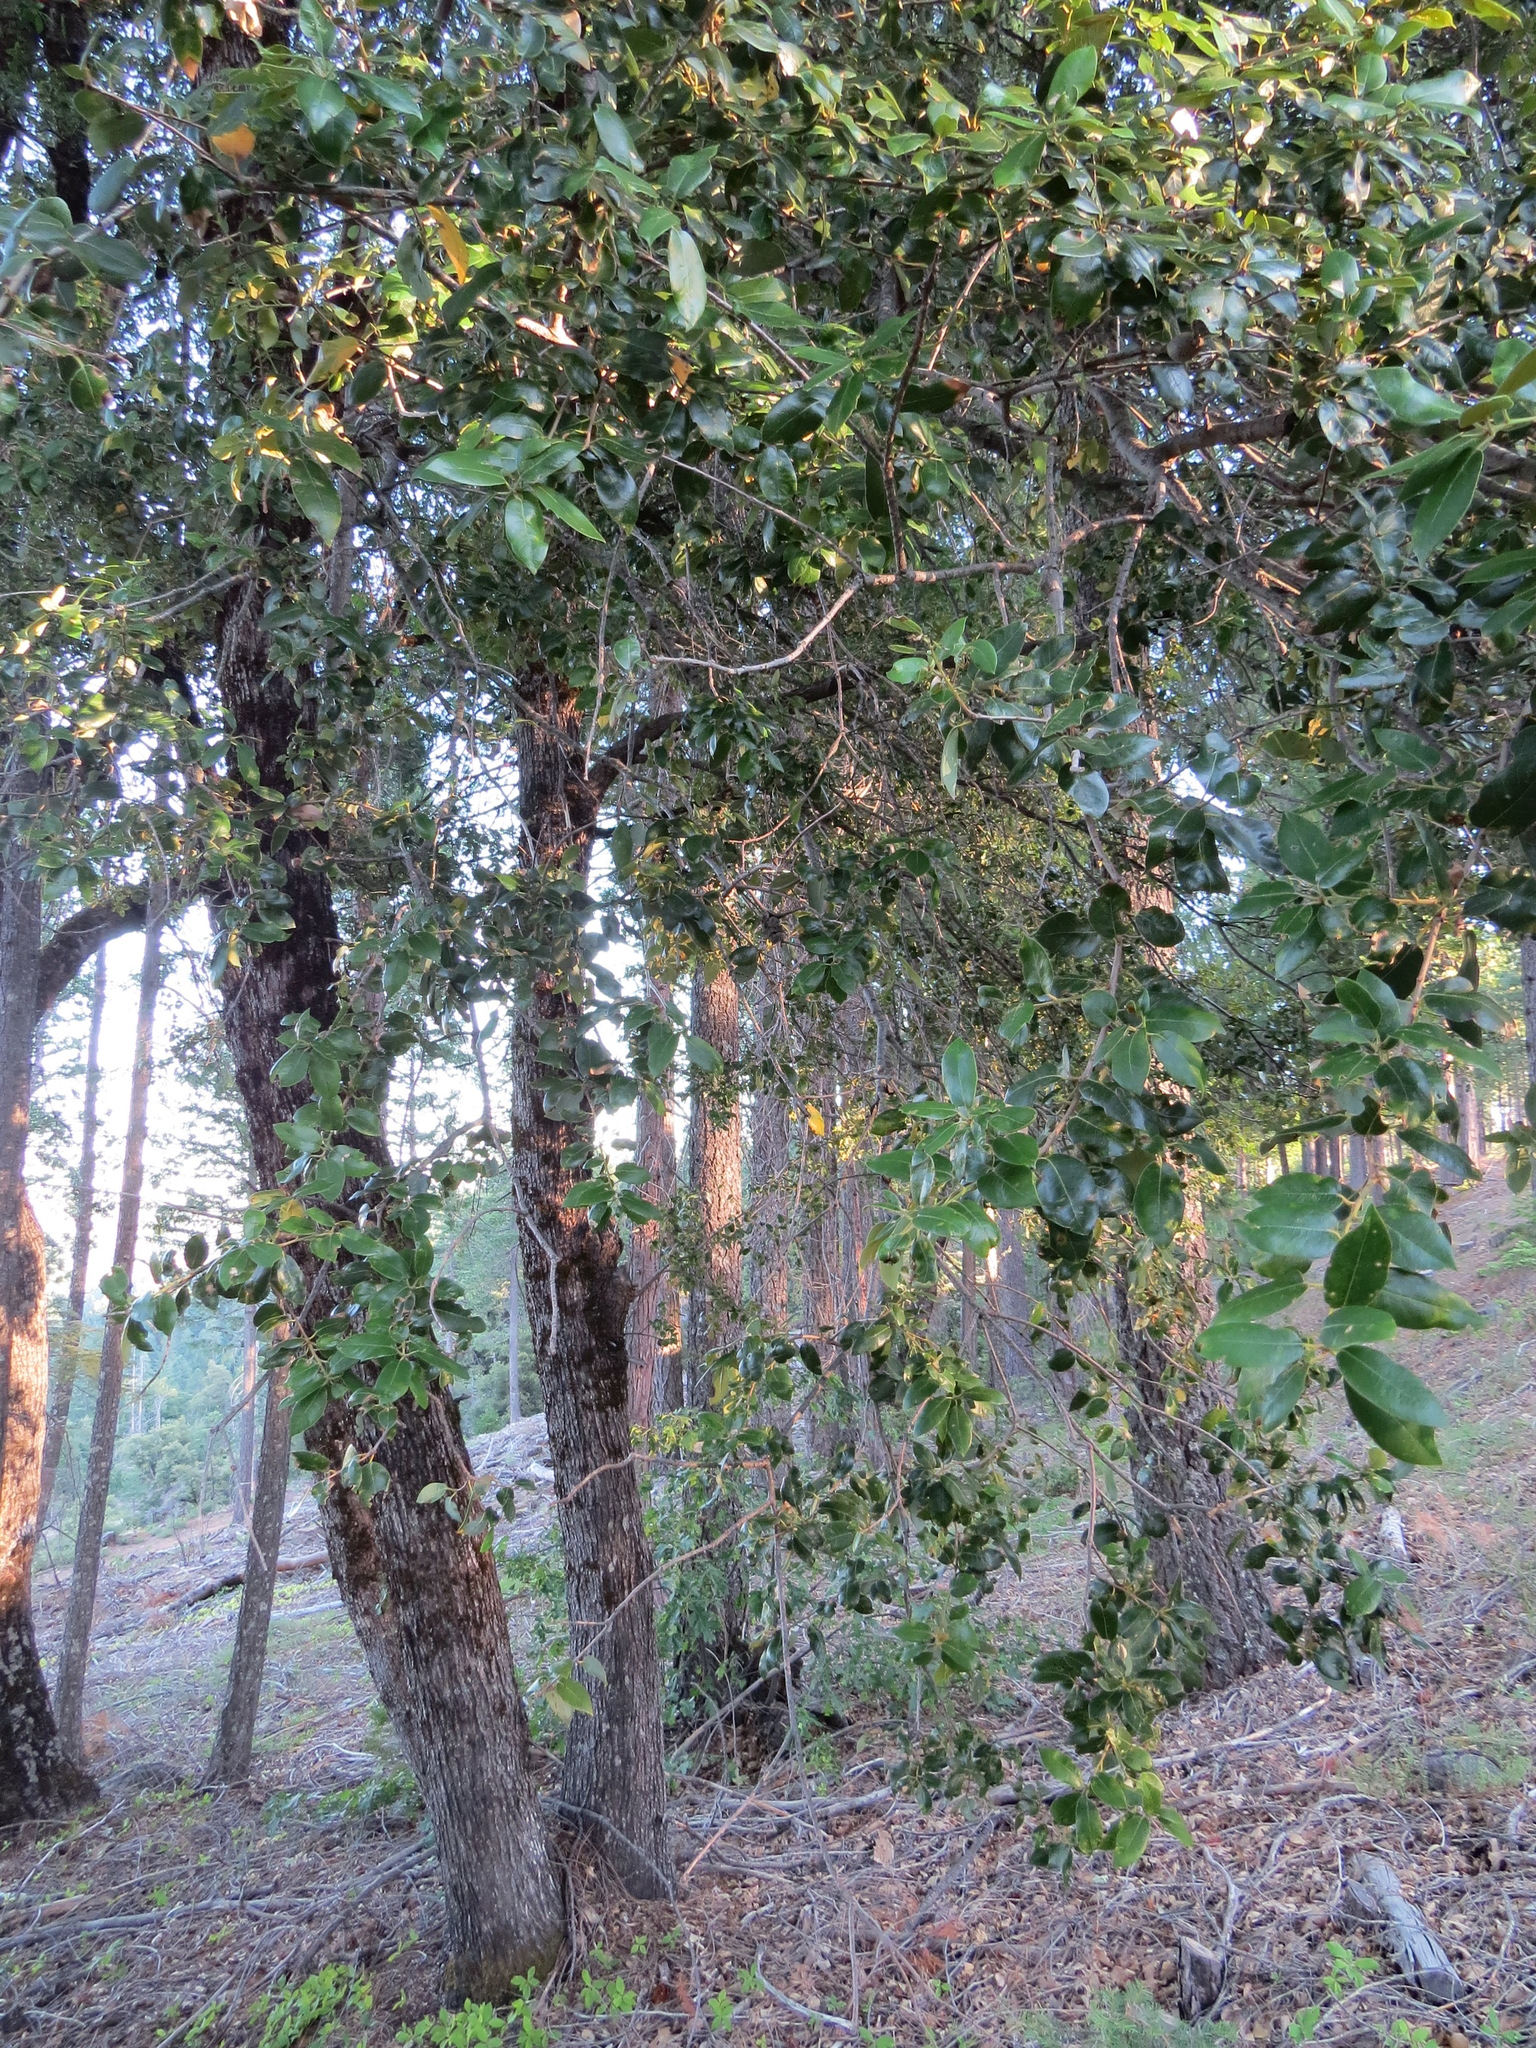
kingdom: Plantae
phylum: Tracheophyta
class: Magnoliopsida
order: Fagales
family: Fagaceae
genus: Quercus
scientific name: Quercus chrysolepis
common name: Canyon live oak
